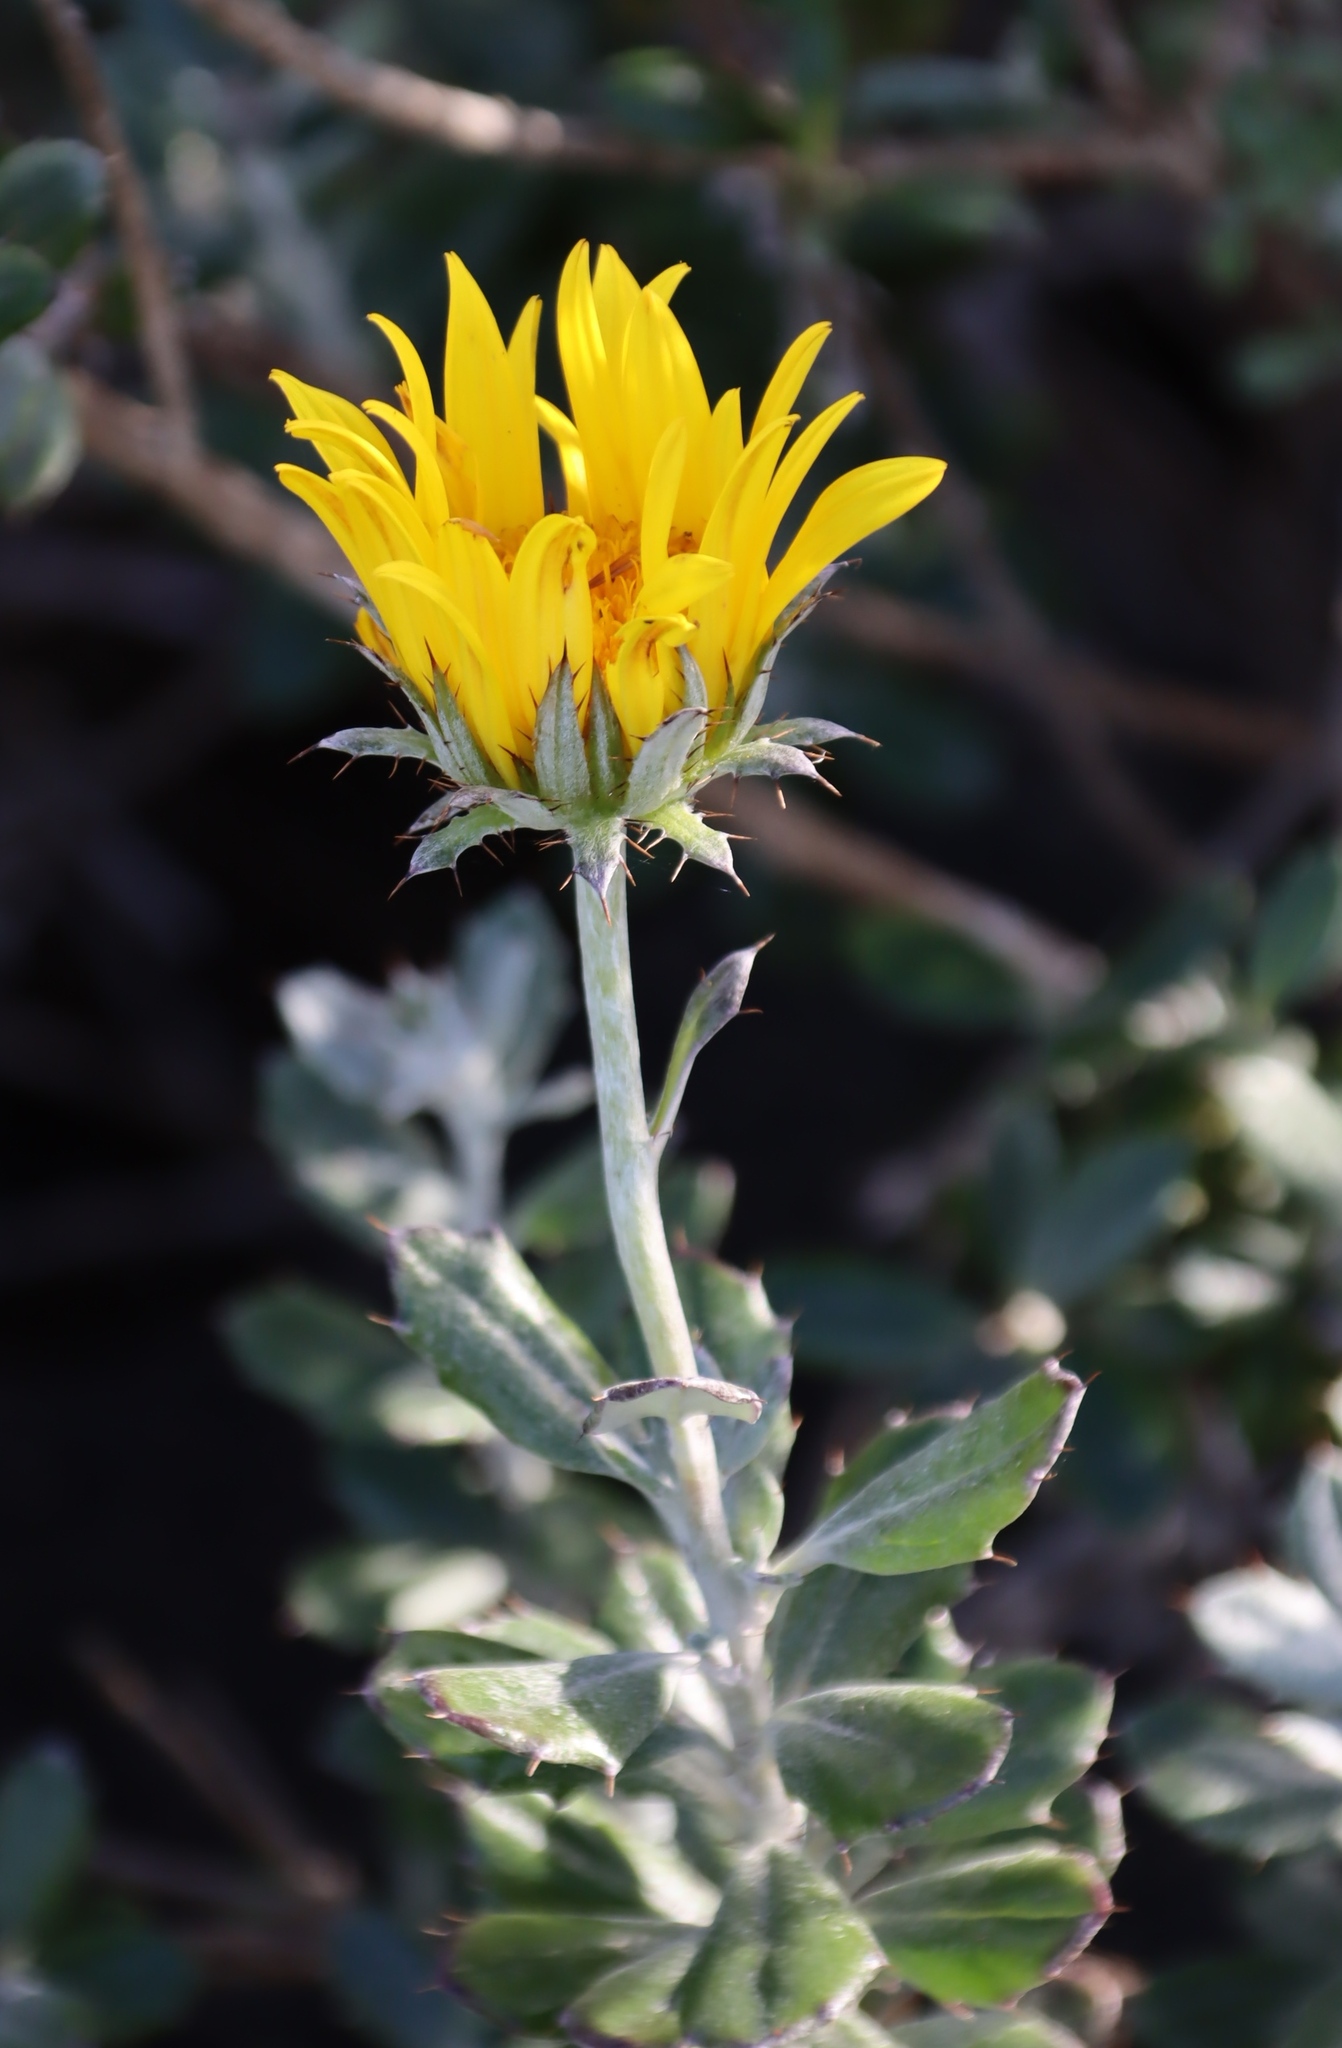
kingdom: Plantae
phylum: Tracheophyta
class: Magnoliopsida
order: Asterales
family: Asteraceae
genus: Berkheya
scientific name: Berkheya coriacea
